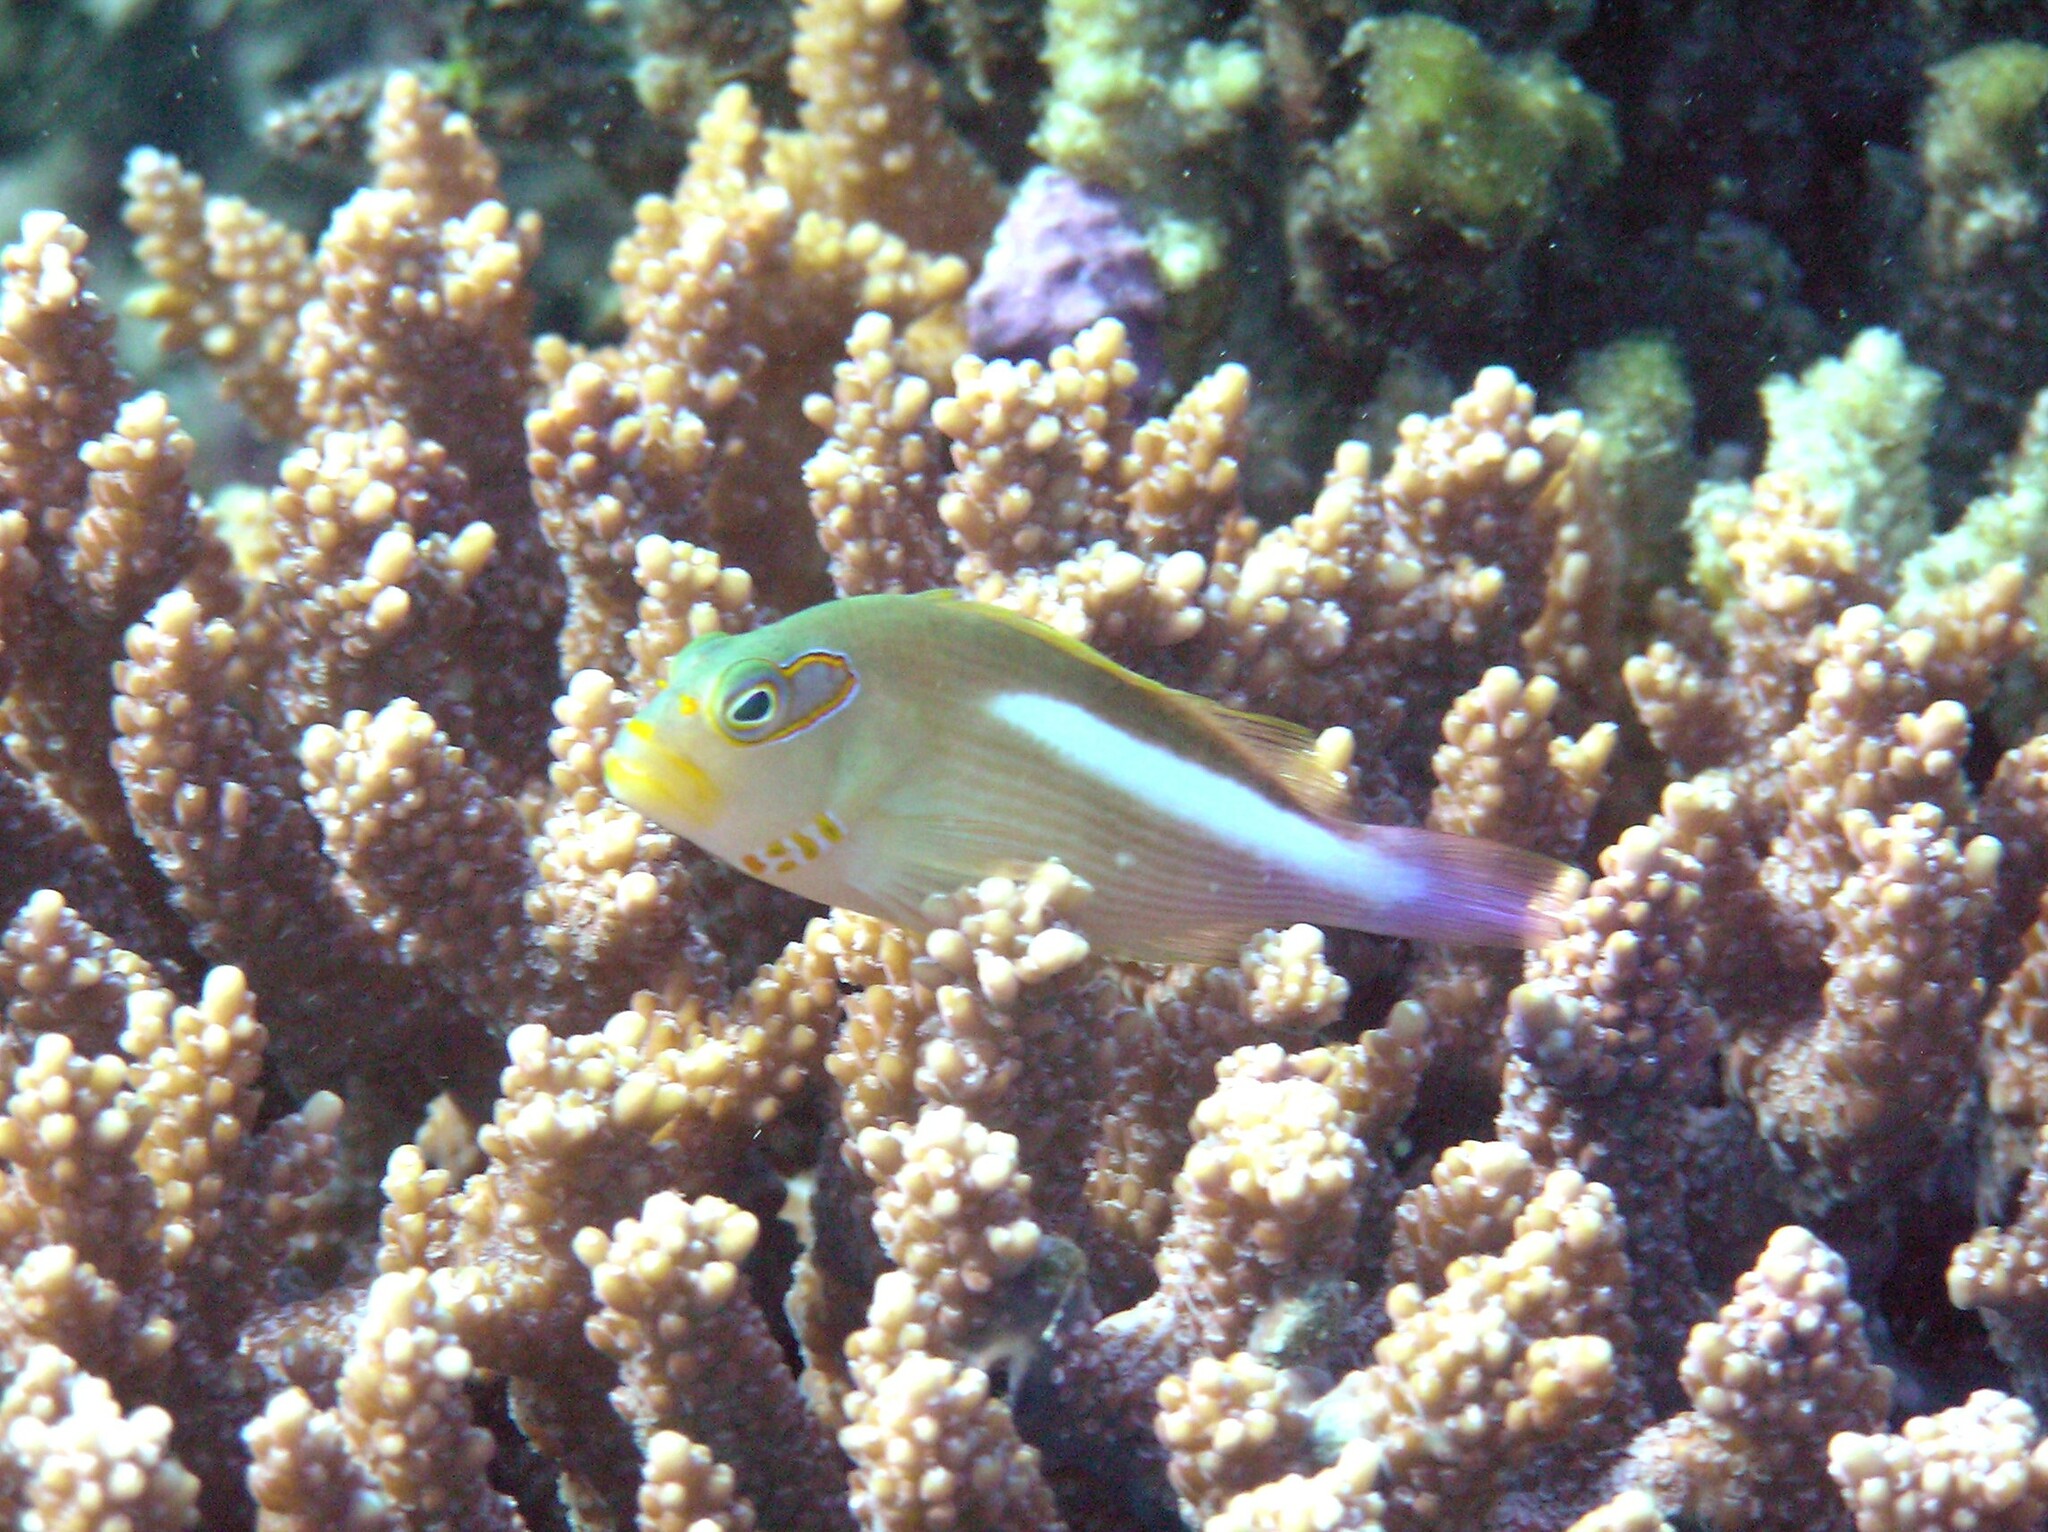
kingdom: Animalia
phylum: Chordata
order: Perciformes
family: Cirrhitidae
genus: Paracirrhites
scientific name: Paracirrhites arcatus
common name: Arc-eye hawkfish
